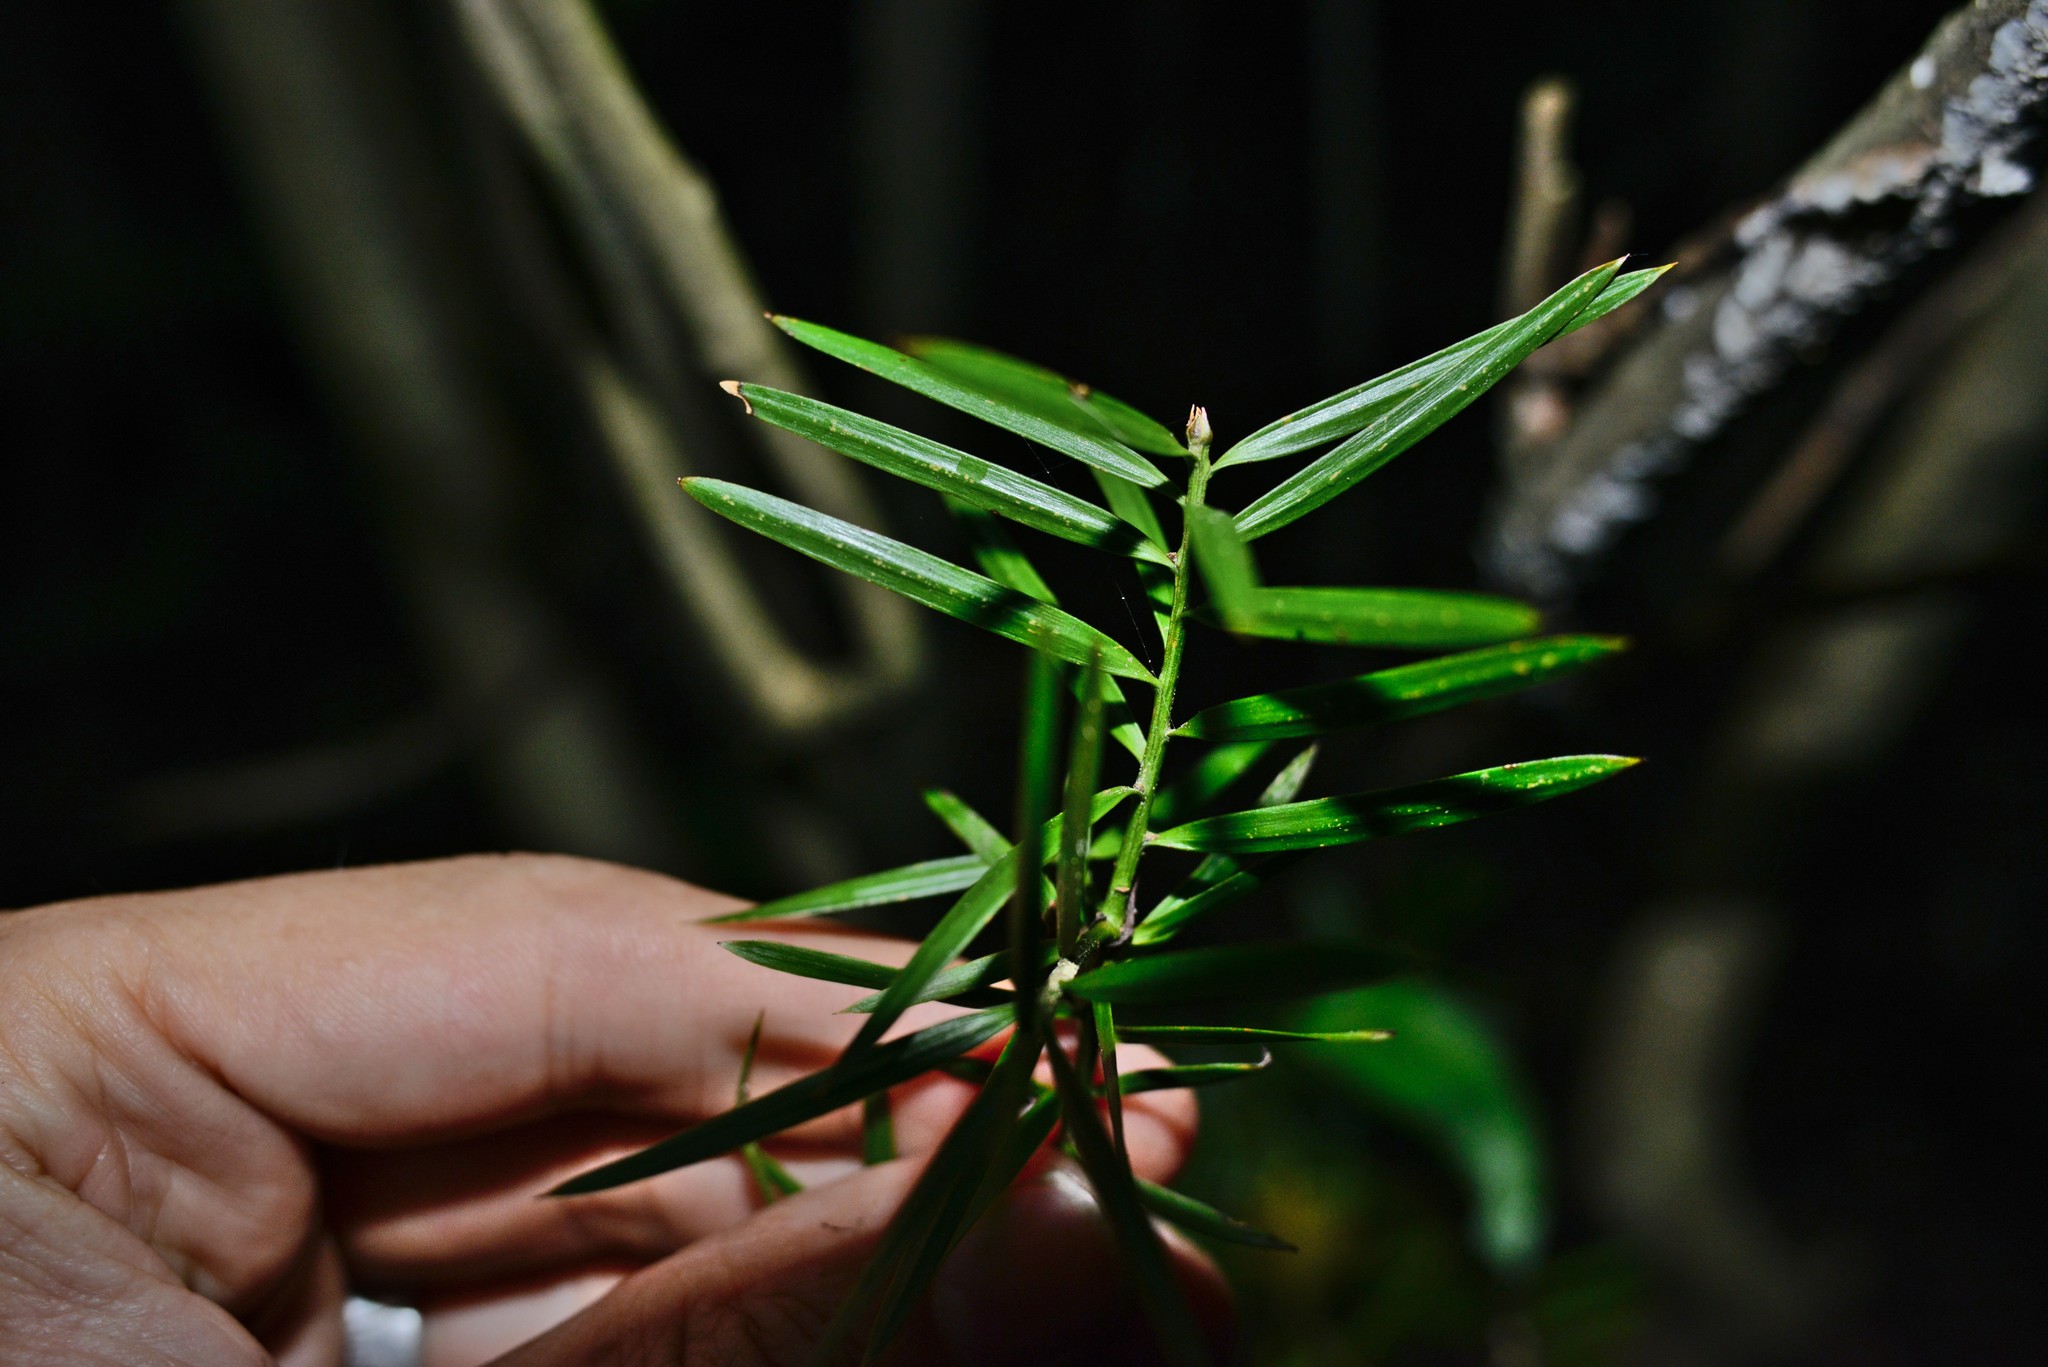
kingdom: Plantae
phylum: Tracheophyta
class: Pinopsida
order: Pinales
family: Podocarpaceae
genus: Podocarpus
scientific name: Podocarpus totara
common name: Totara
